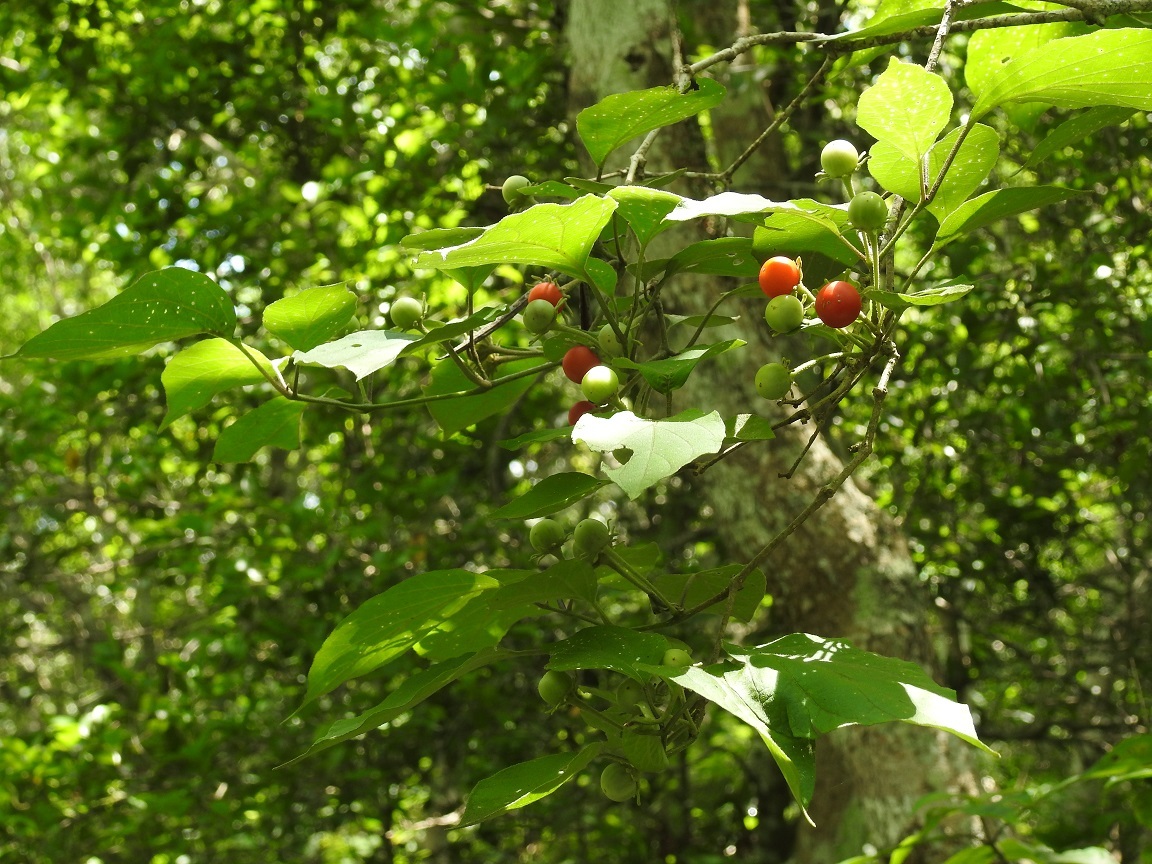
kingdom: Plantae
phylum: Tracheophyta
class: Magnoliopsida
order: Solanales
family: Solanaceae
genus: Lycianthes
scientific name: Lycianthes scandens
